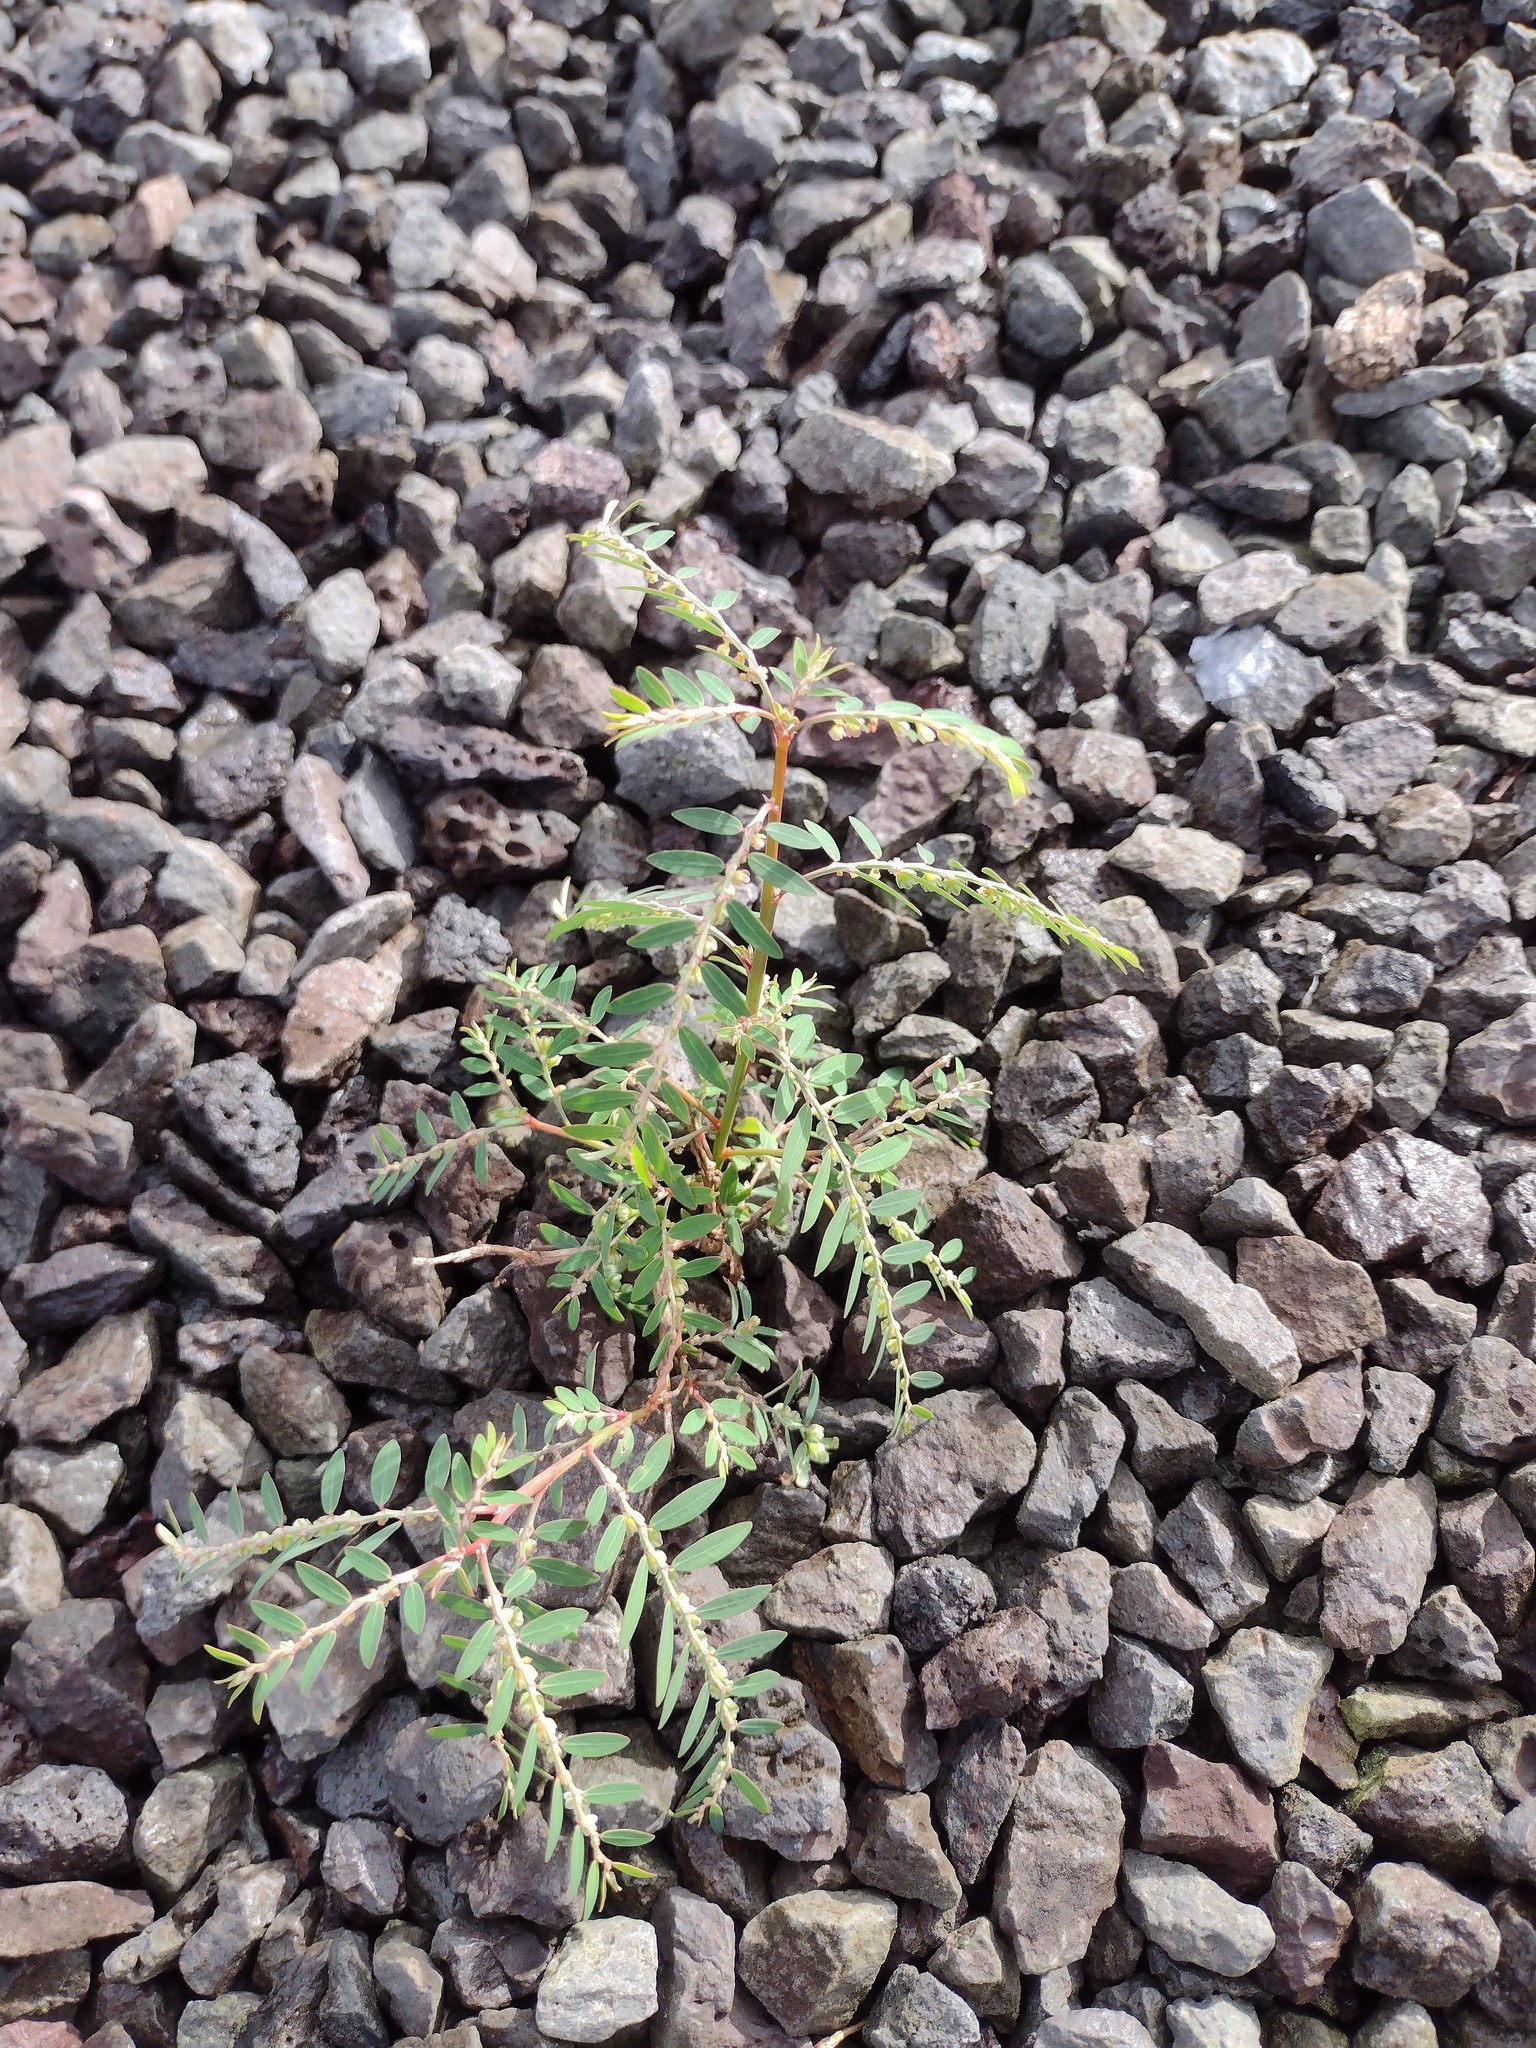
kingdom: Plantae
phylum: Tracheophyta
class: Magnoliopsida
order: Malpighiales
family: Phyllanthaceae
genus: Phyllanthus
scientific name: Phyllanthus debilis
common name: Niruri
